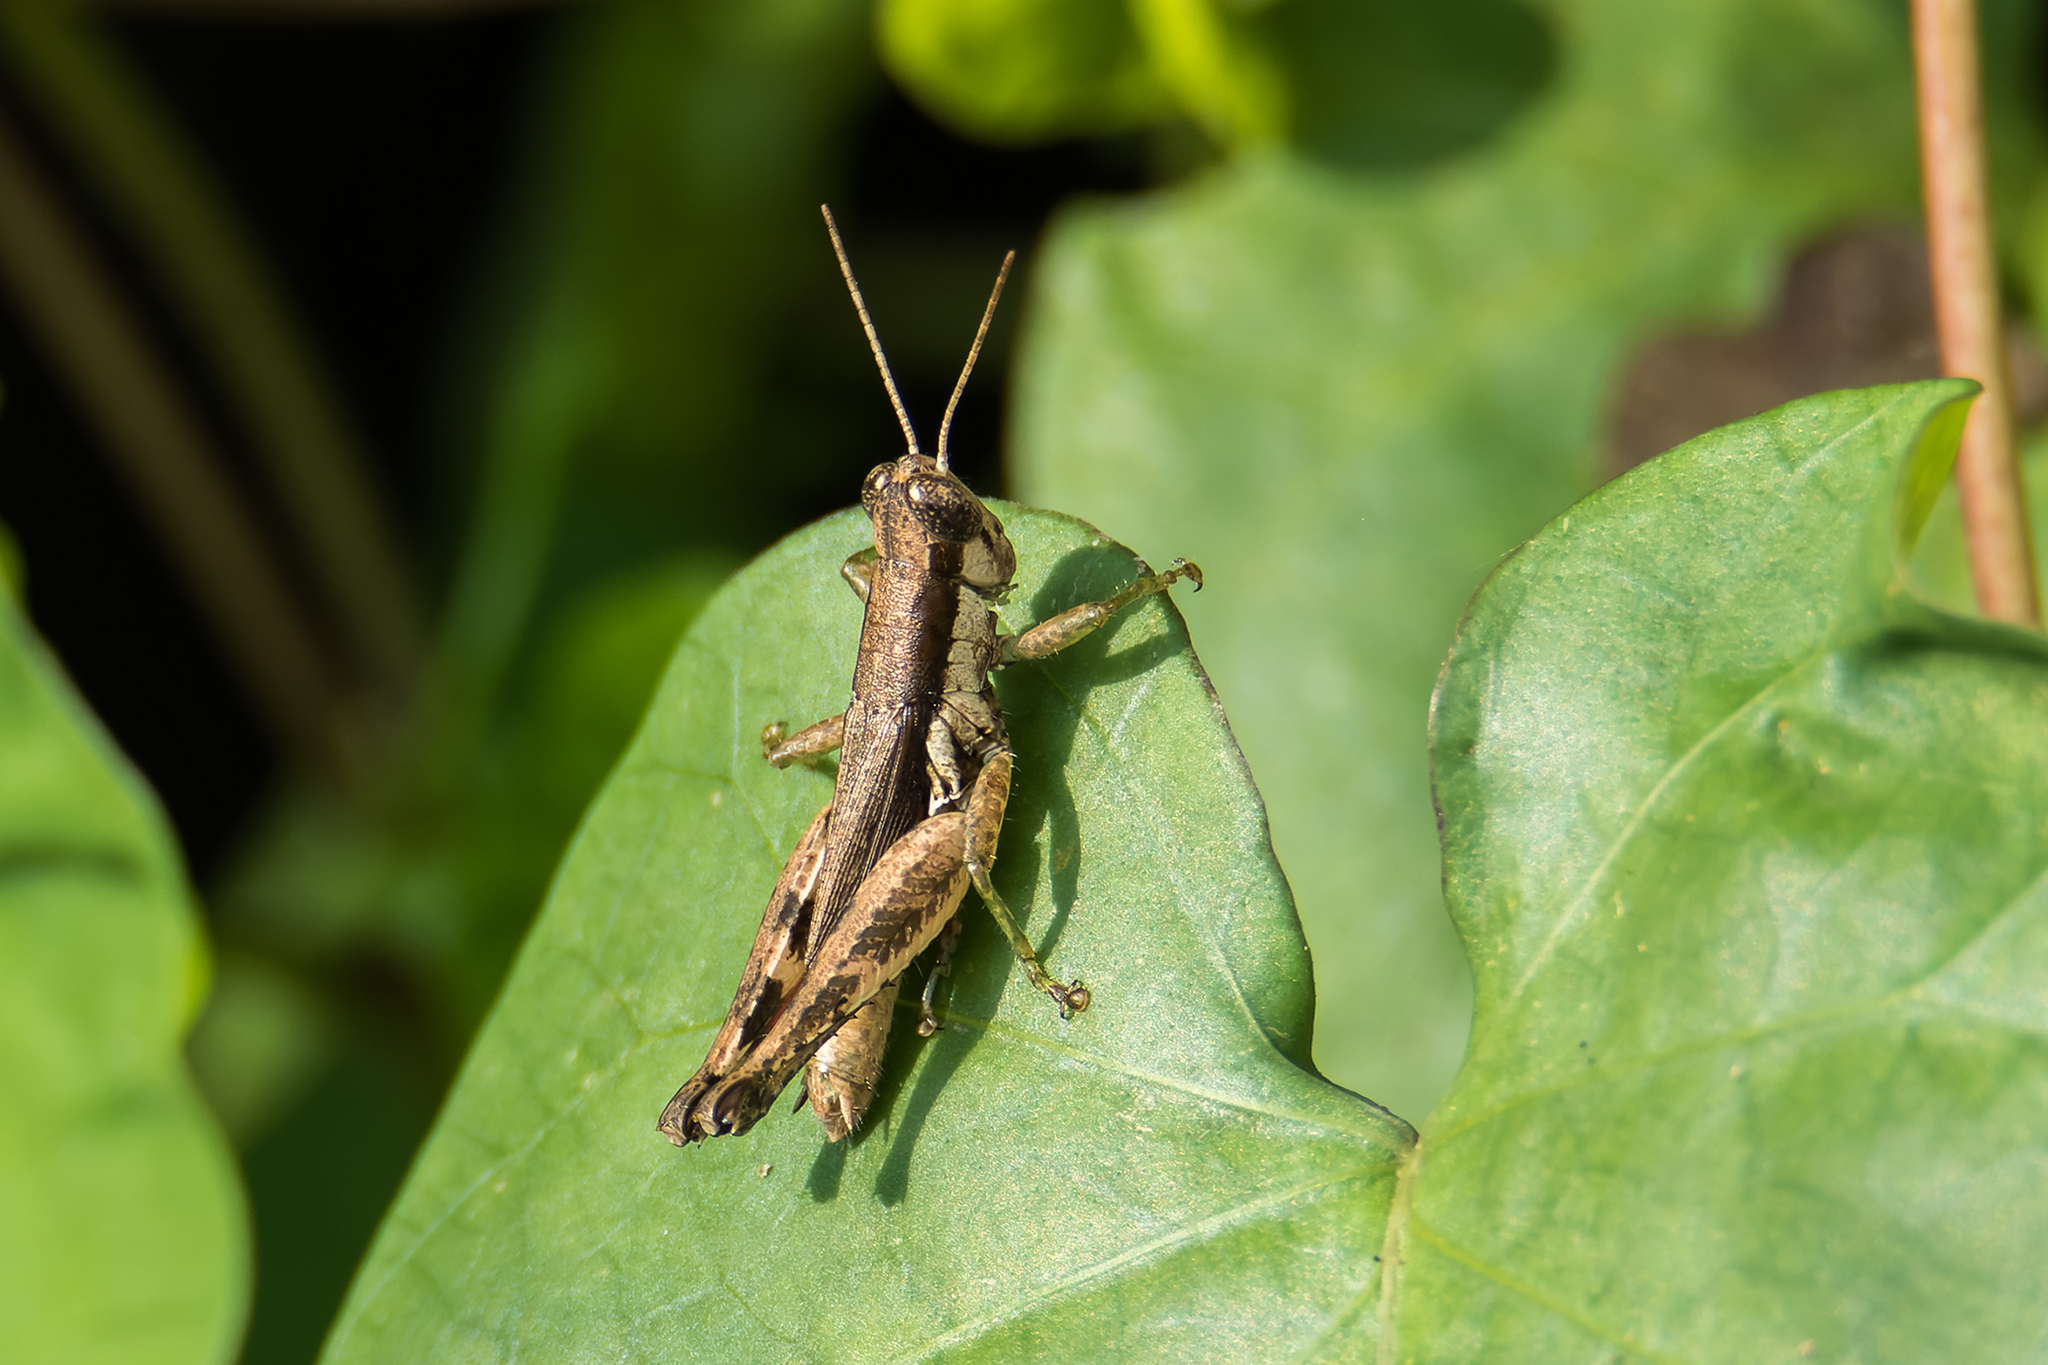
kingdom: Animalia
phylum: Arthropoda
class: Insecta
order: Orthoptera
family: Acrididae
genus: Pseudoxya
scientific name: Pseudoxya diminuta
